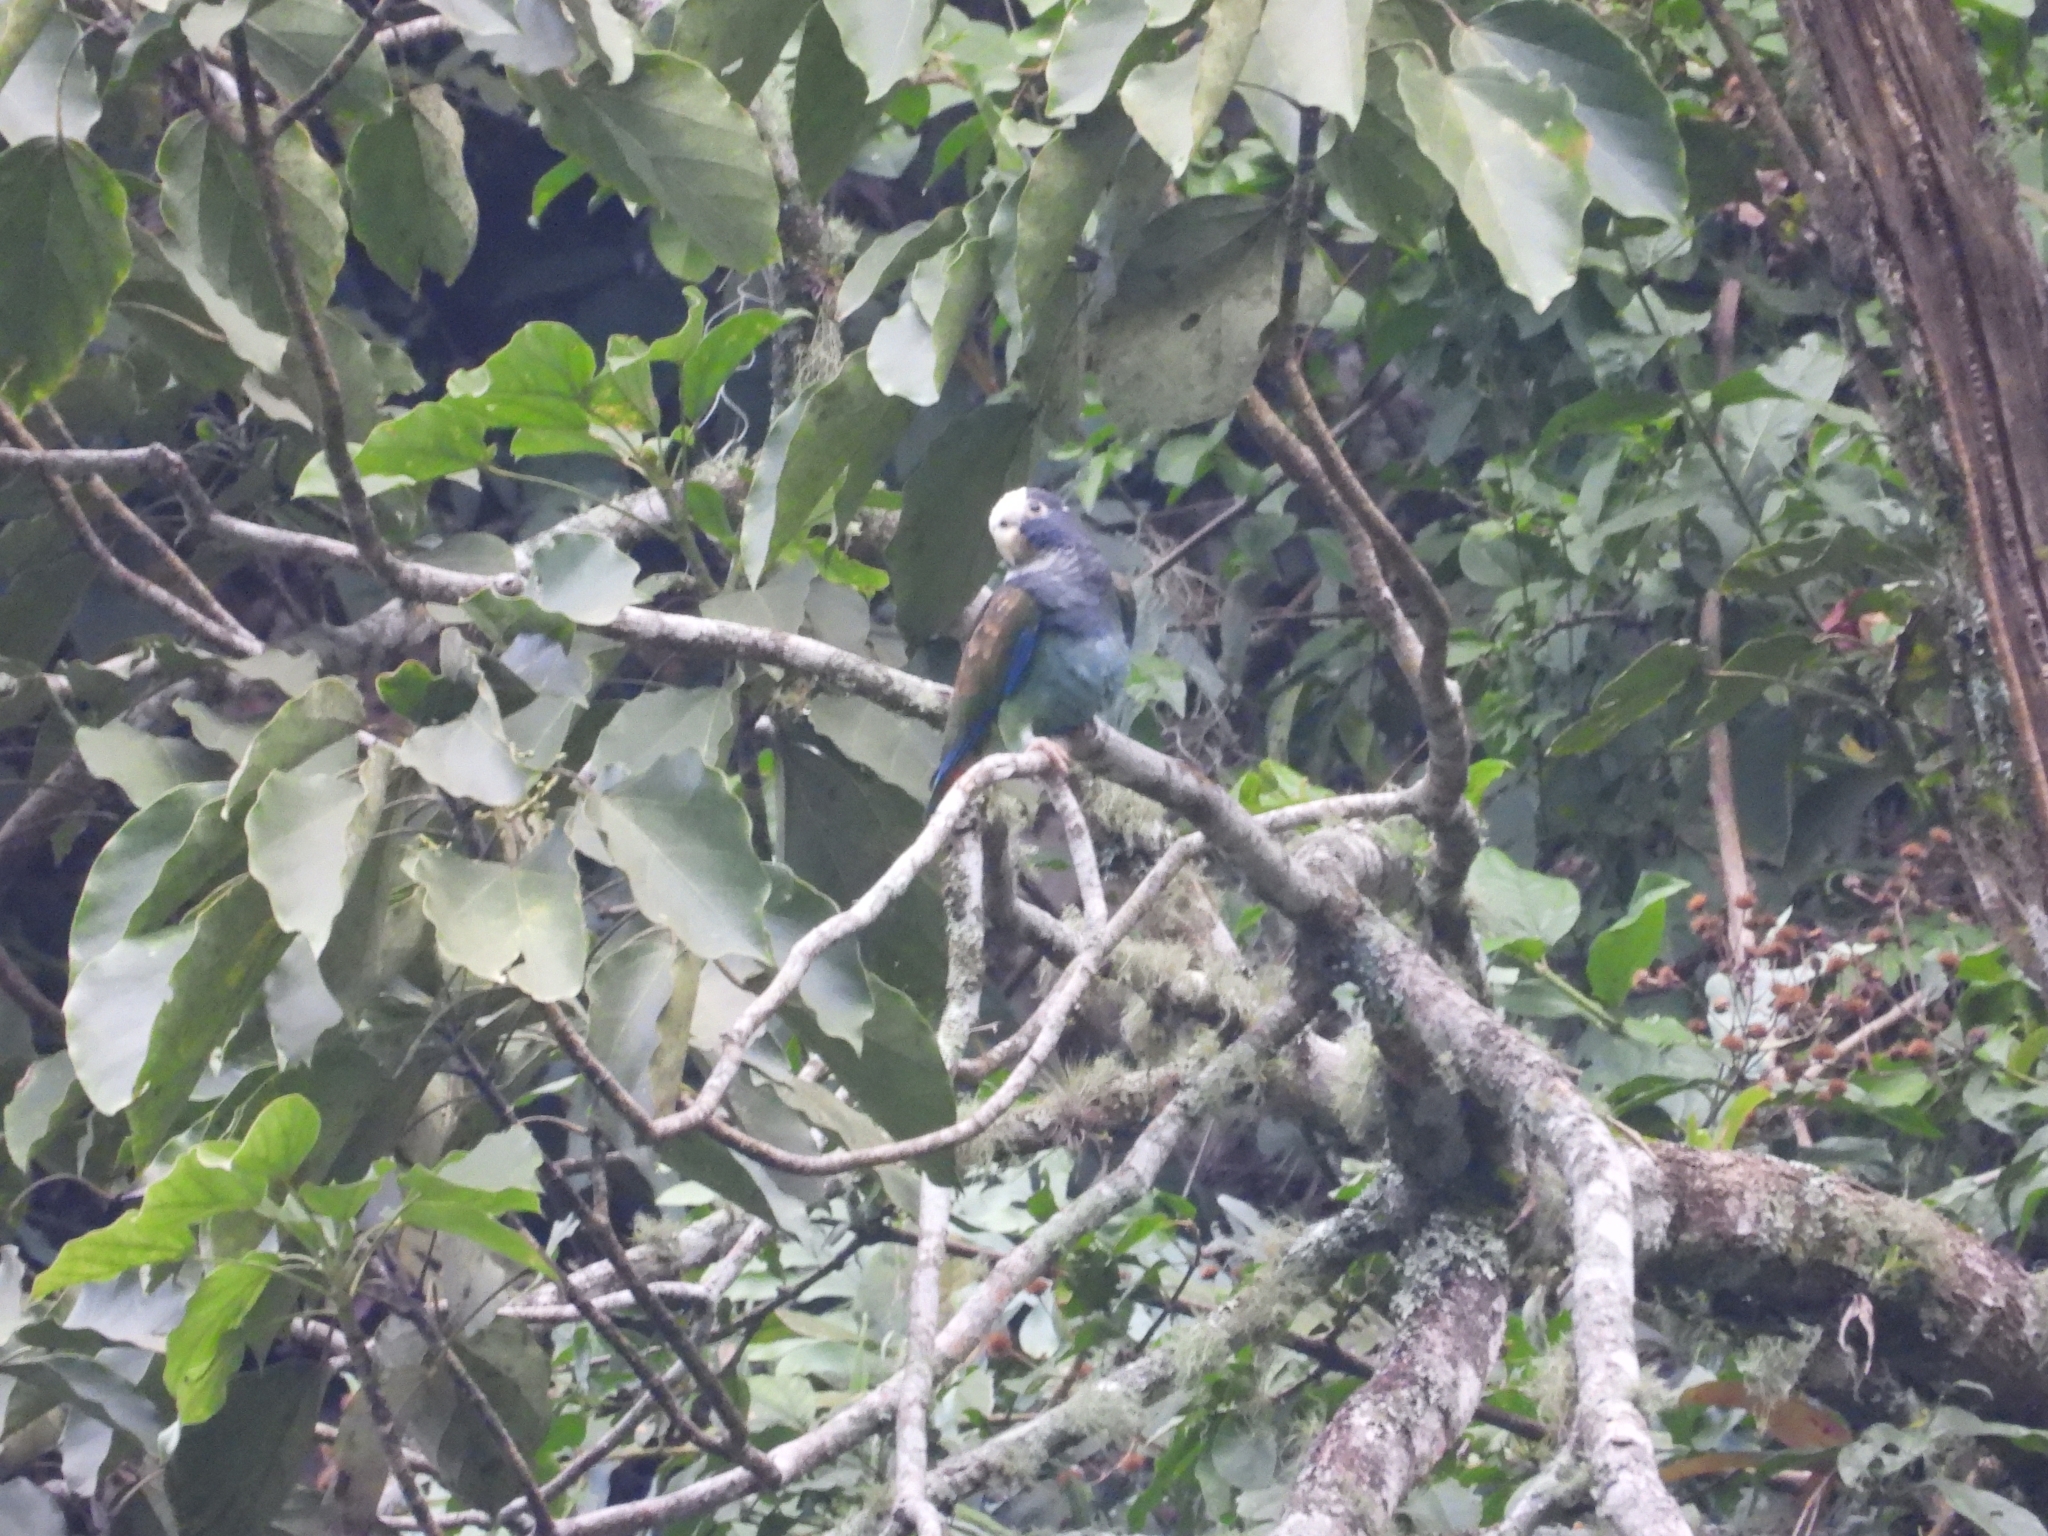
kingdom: Animalia
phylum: Chordata
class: Aves
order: Psittaciformes
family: Psittacidae
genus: Pionus
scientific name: Pionus senilis
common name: White-crowned parrot
